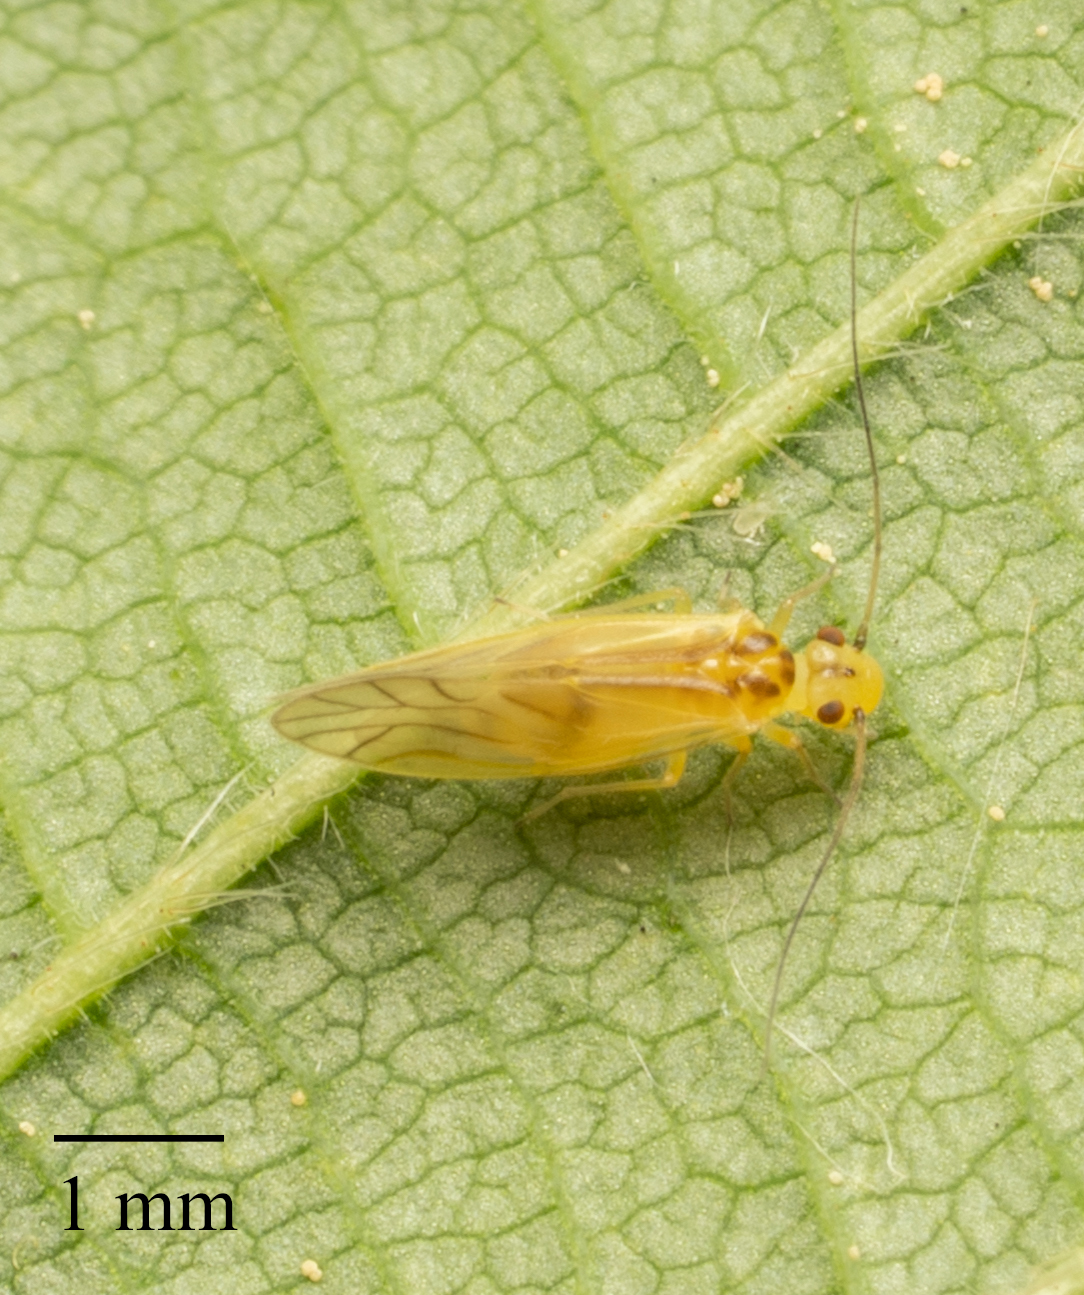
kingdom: Animalia
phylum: Arthropoda
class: Insecta
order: Psocodea
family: Caeciliusidae
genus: Valenzuela
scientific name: Valenzuela flavidus
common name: Yellow barklouse
